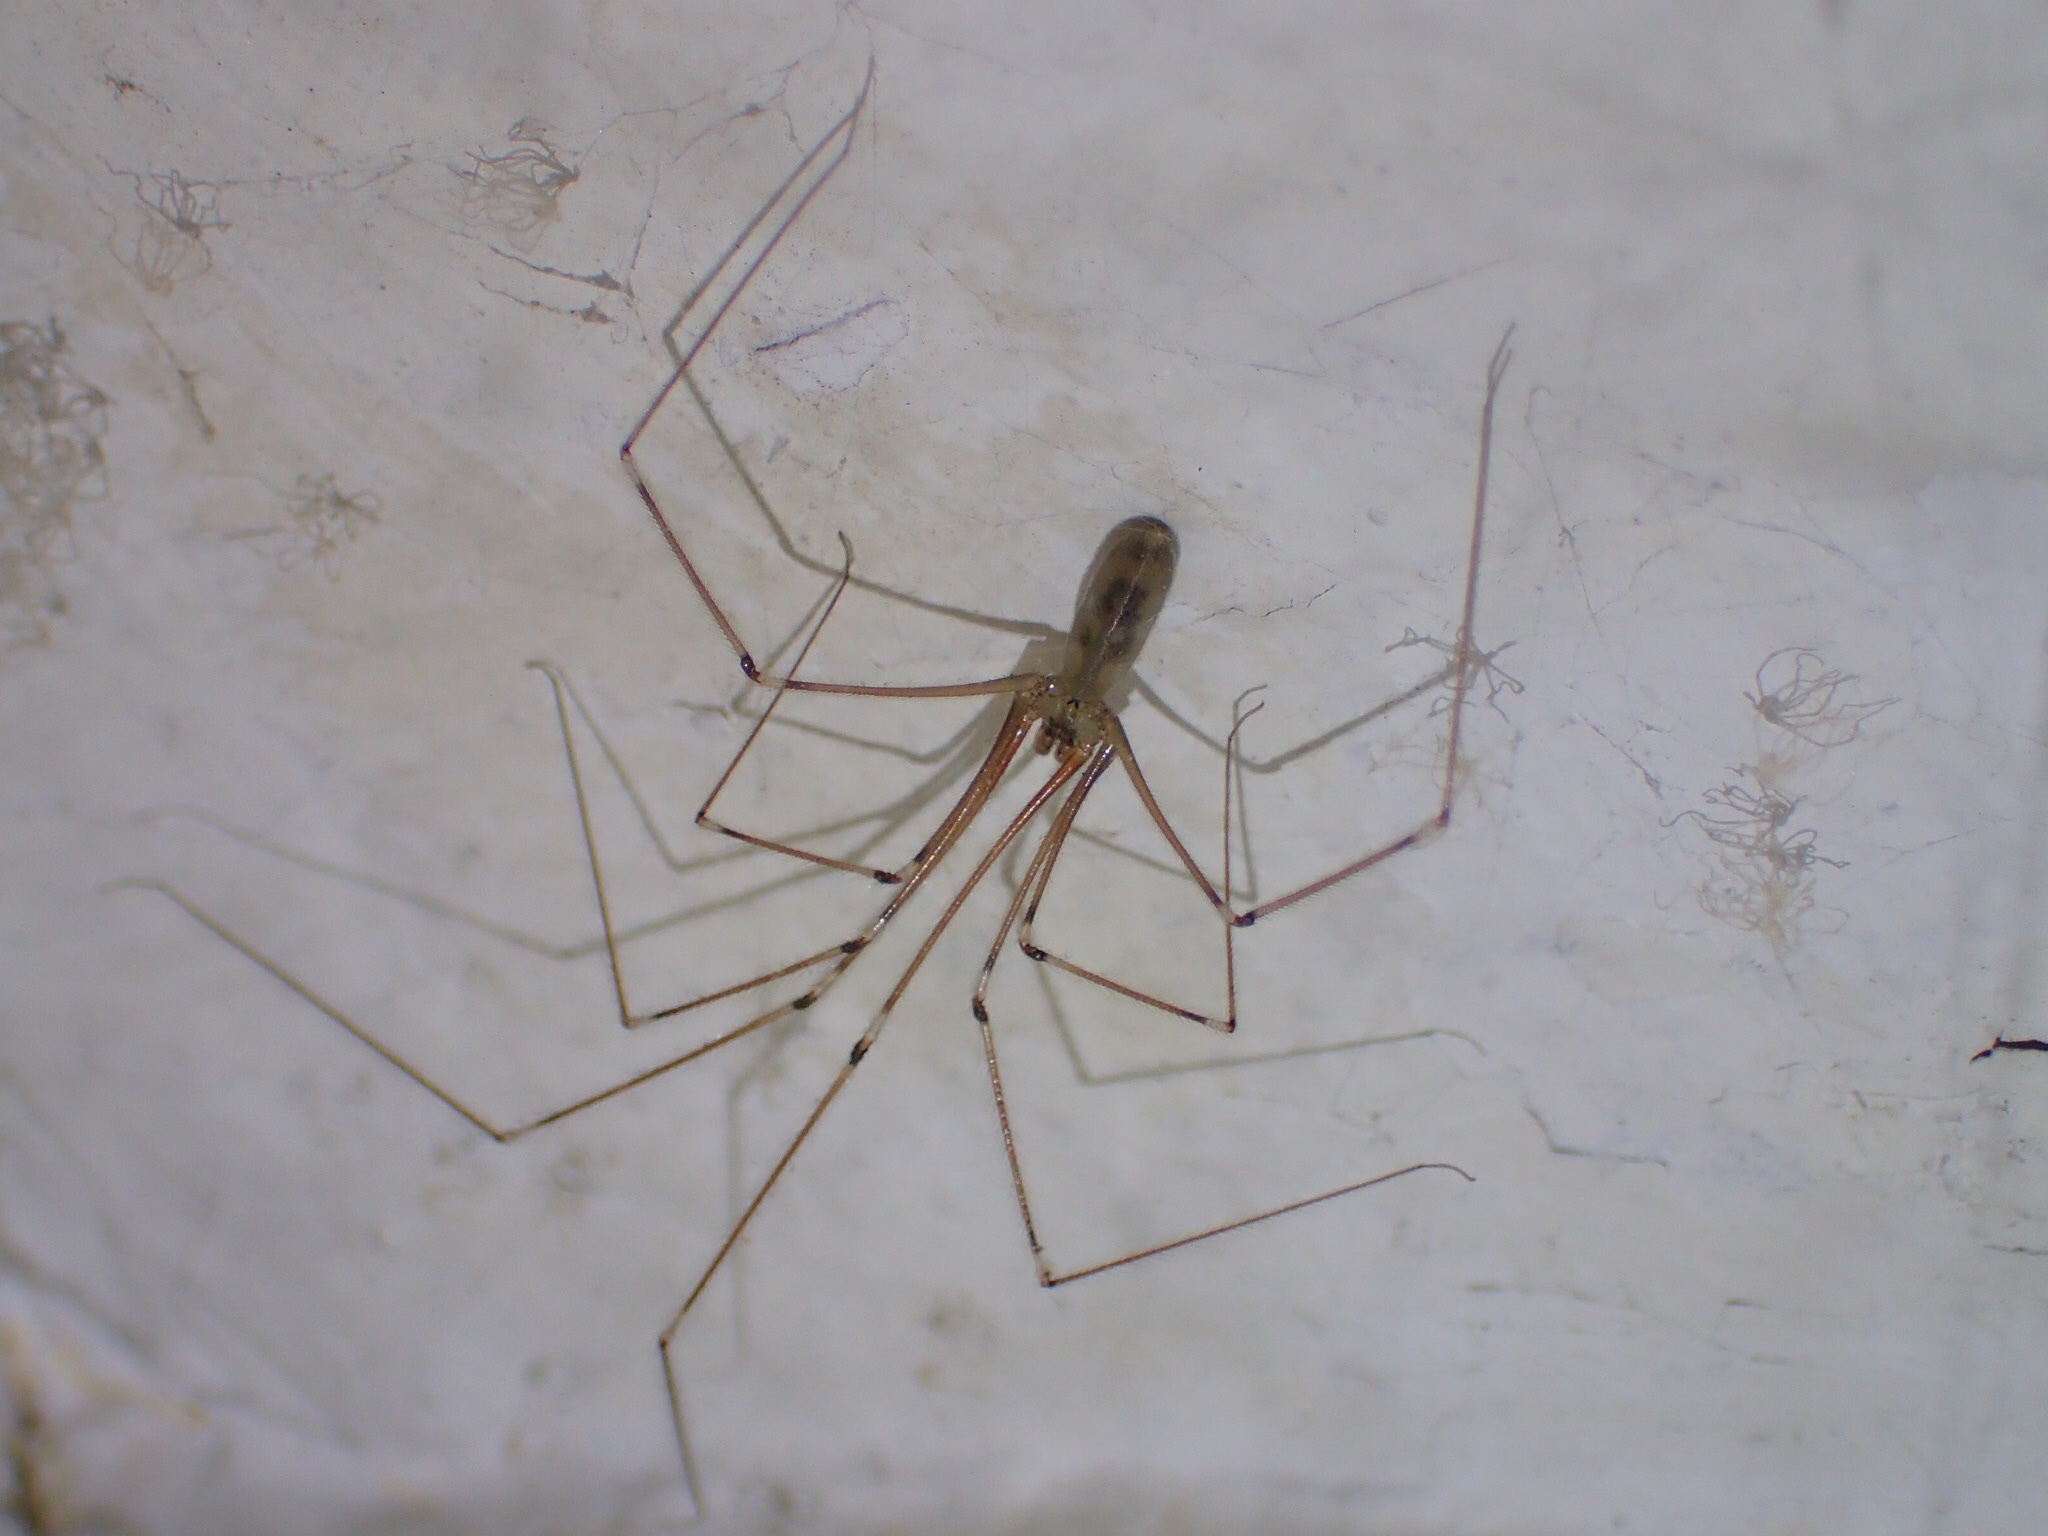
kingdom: Animalia
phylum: Arthropoda
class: Arachnida
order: Araneae
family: Pholcidae
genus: Pholcus
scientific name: Pholcus phalangioides
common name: Longbodied cellar spider
